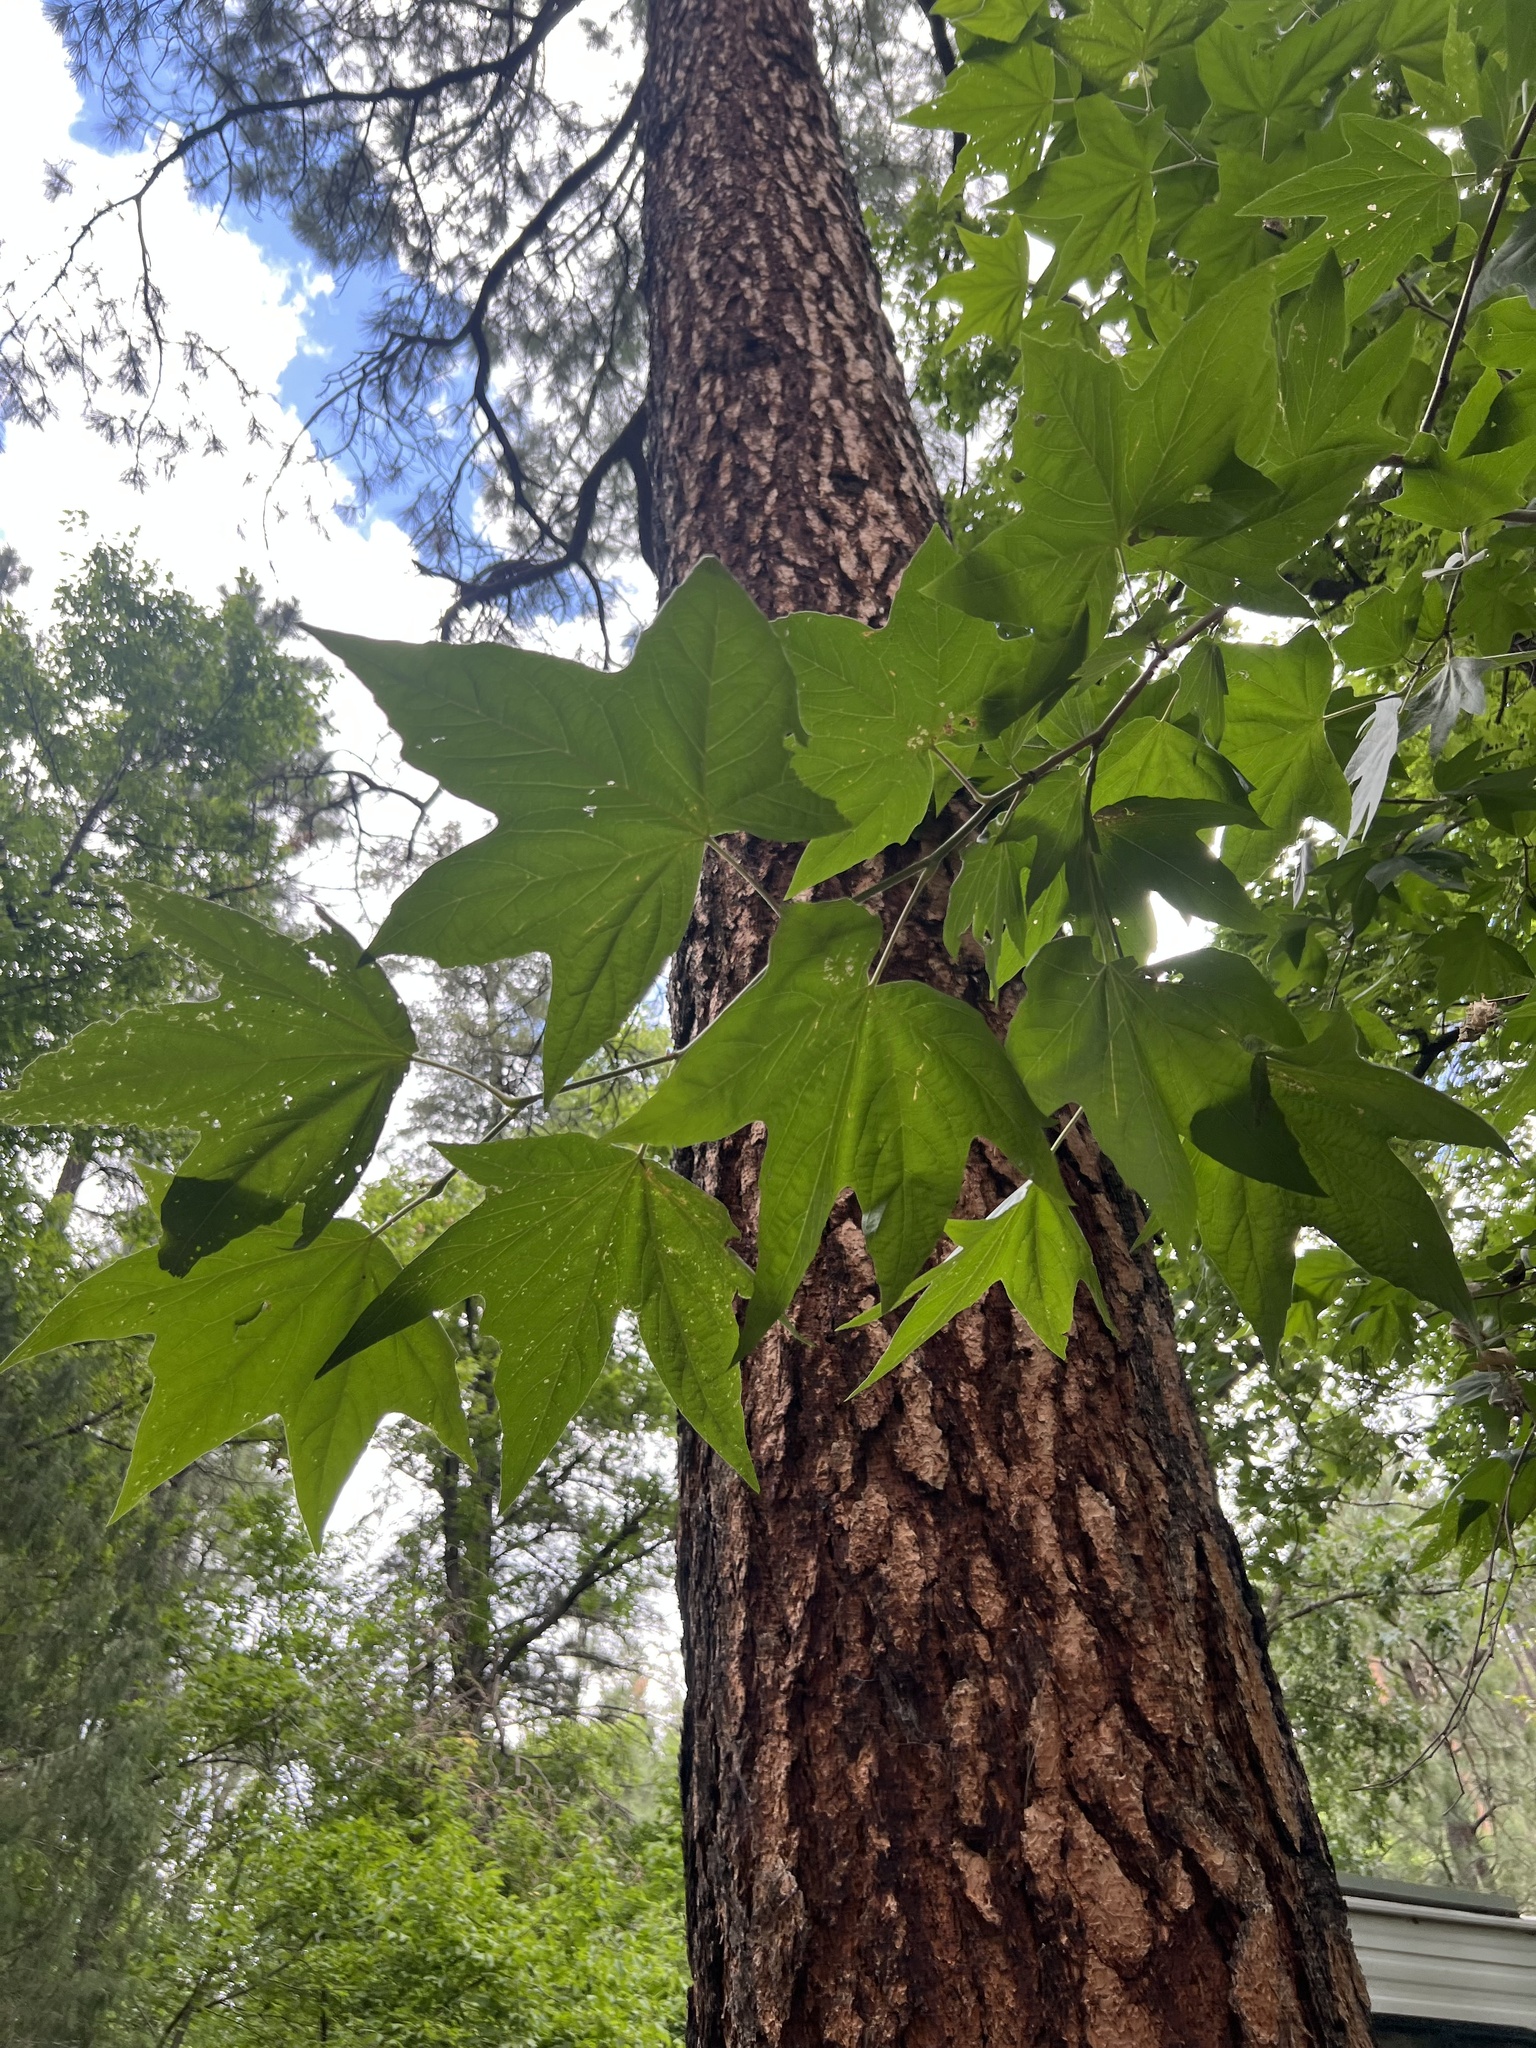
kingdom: Plantae
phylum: Tracheophyta
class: Magnoliopsida
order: Proteales
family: Platanaceae
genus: Platanus
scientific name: Platanus wrightii
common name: Arizona sycamore
